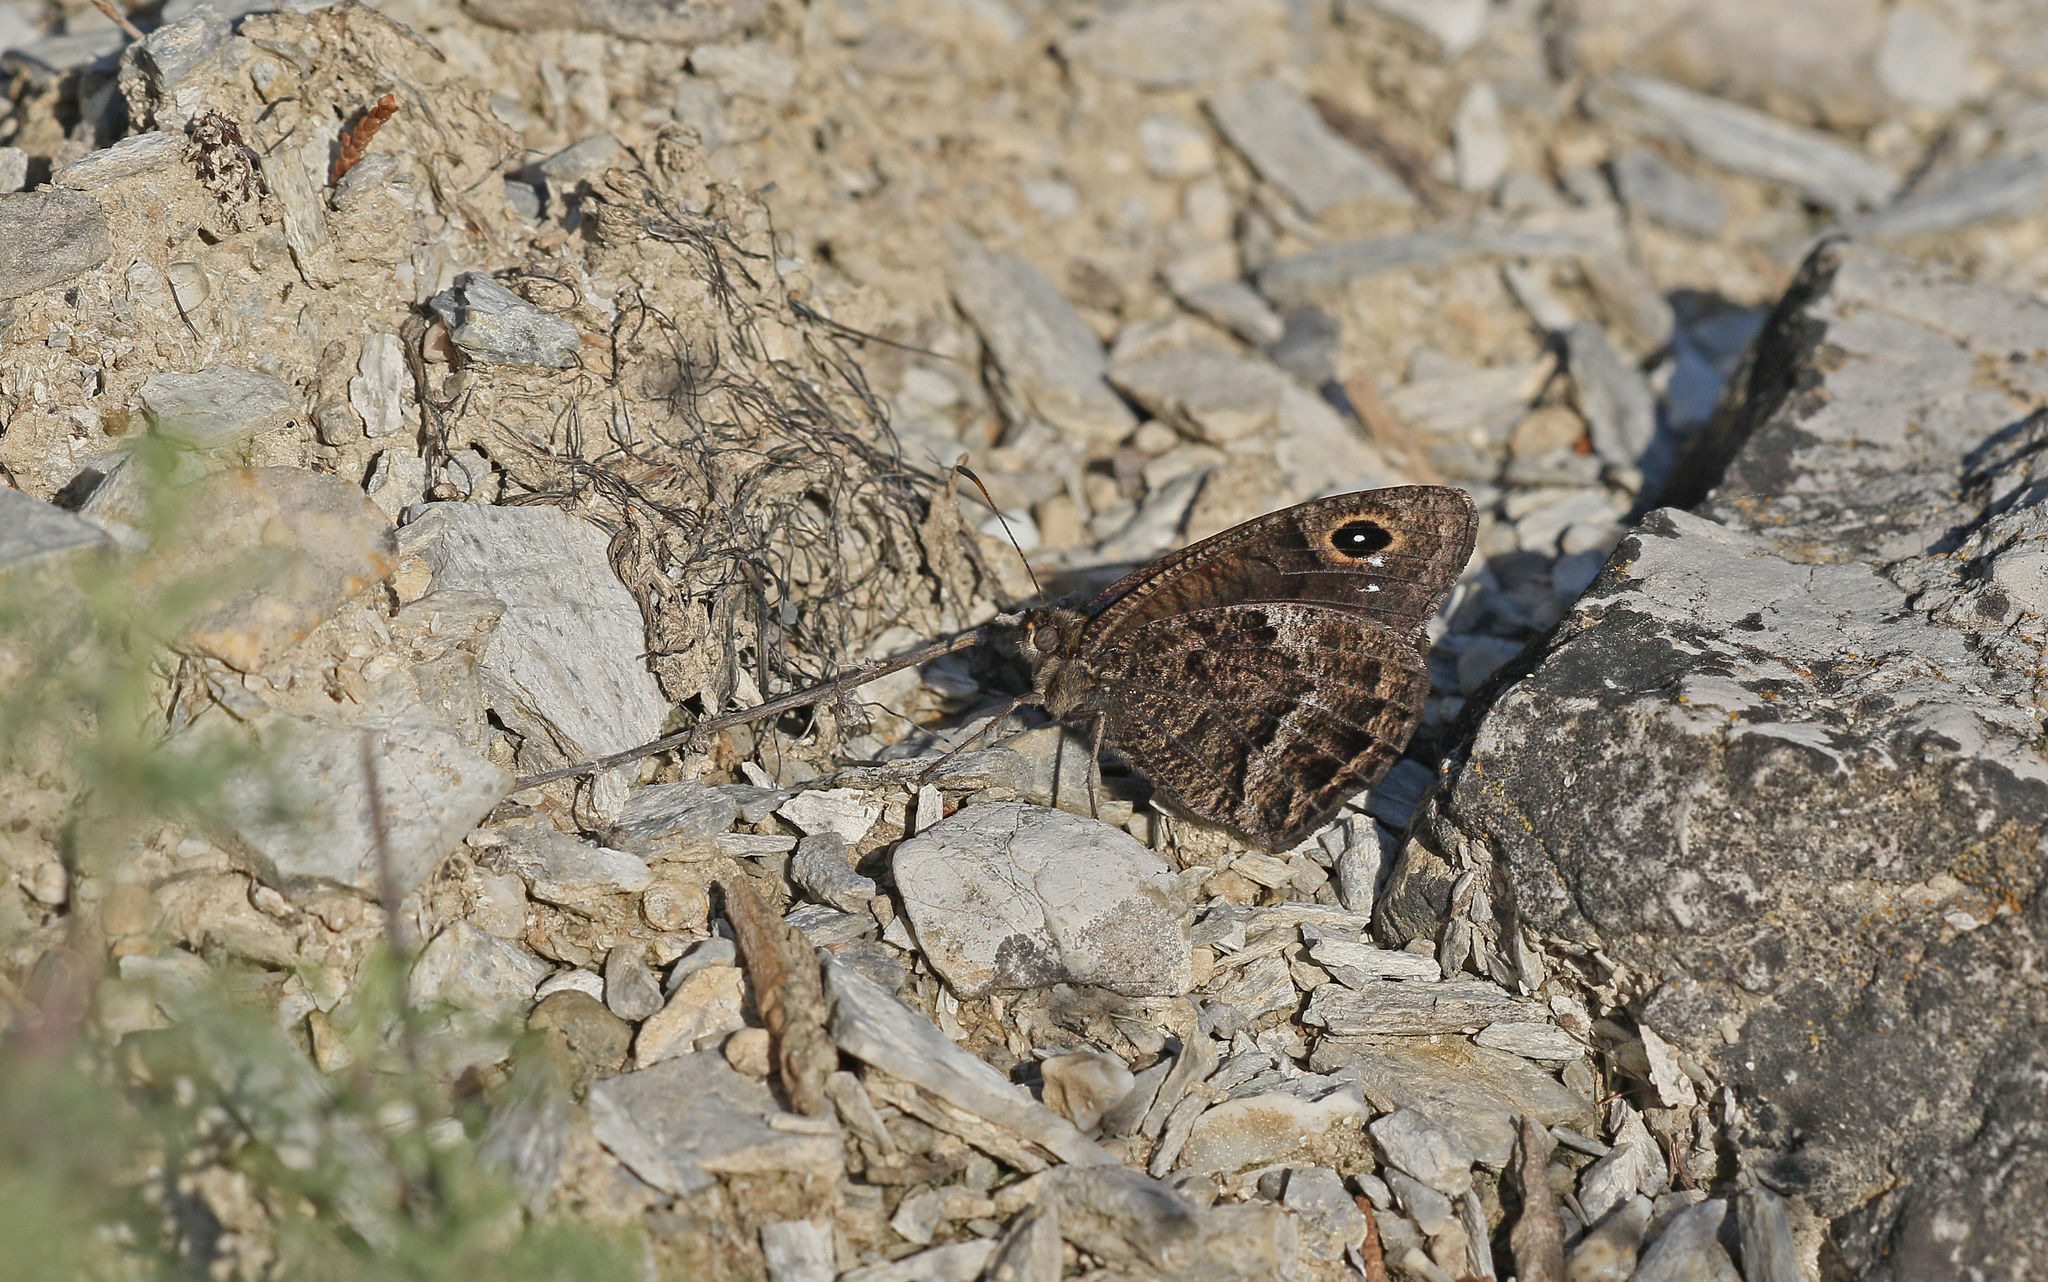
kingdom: Animalia
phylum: Arthropoda
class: Insecta
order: Lepidoptera
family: Nymphalidae
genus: Satyrus
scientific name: Satyrus actaea
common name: Black satyr
